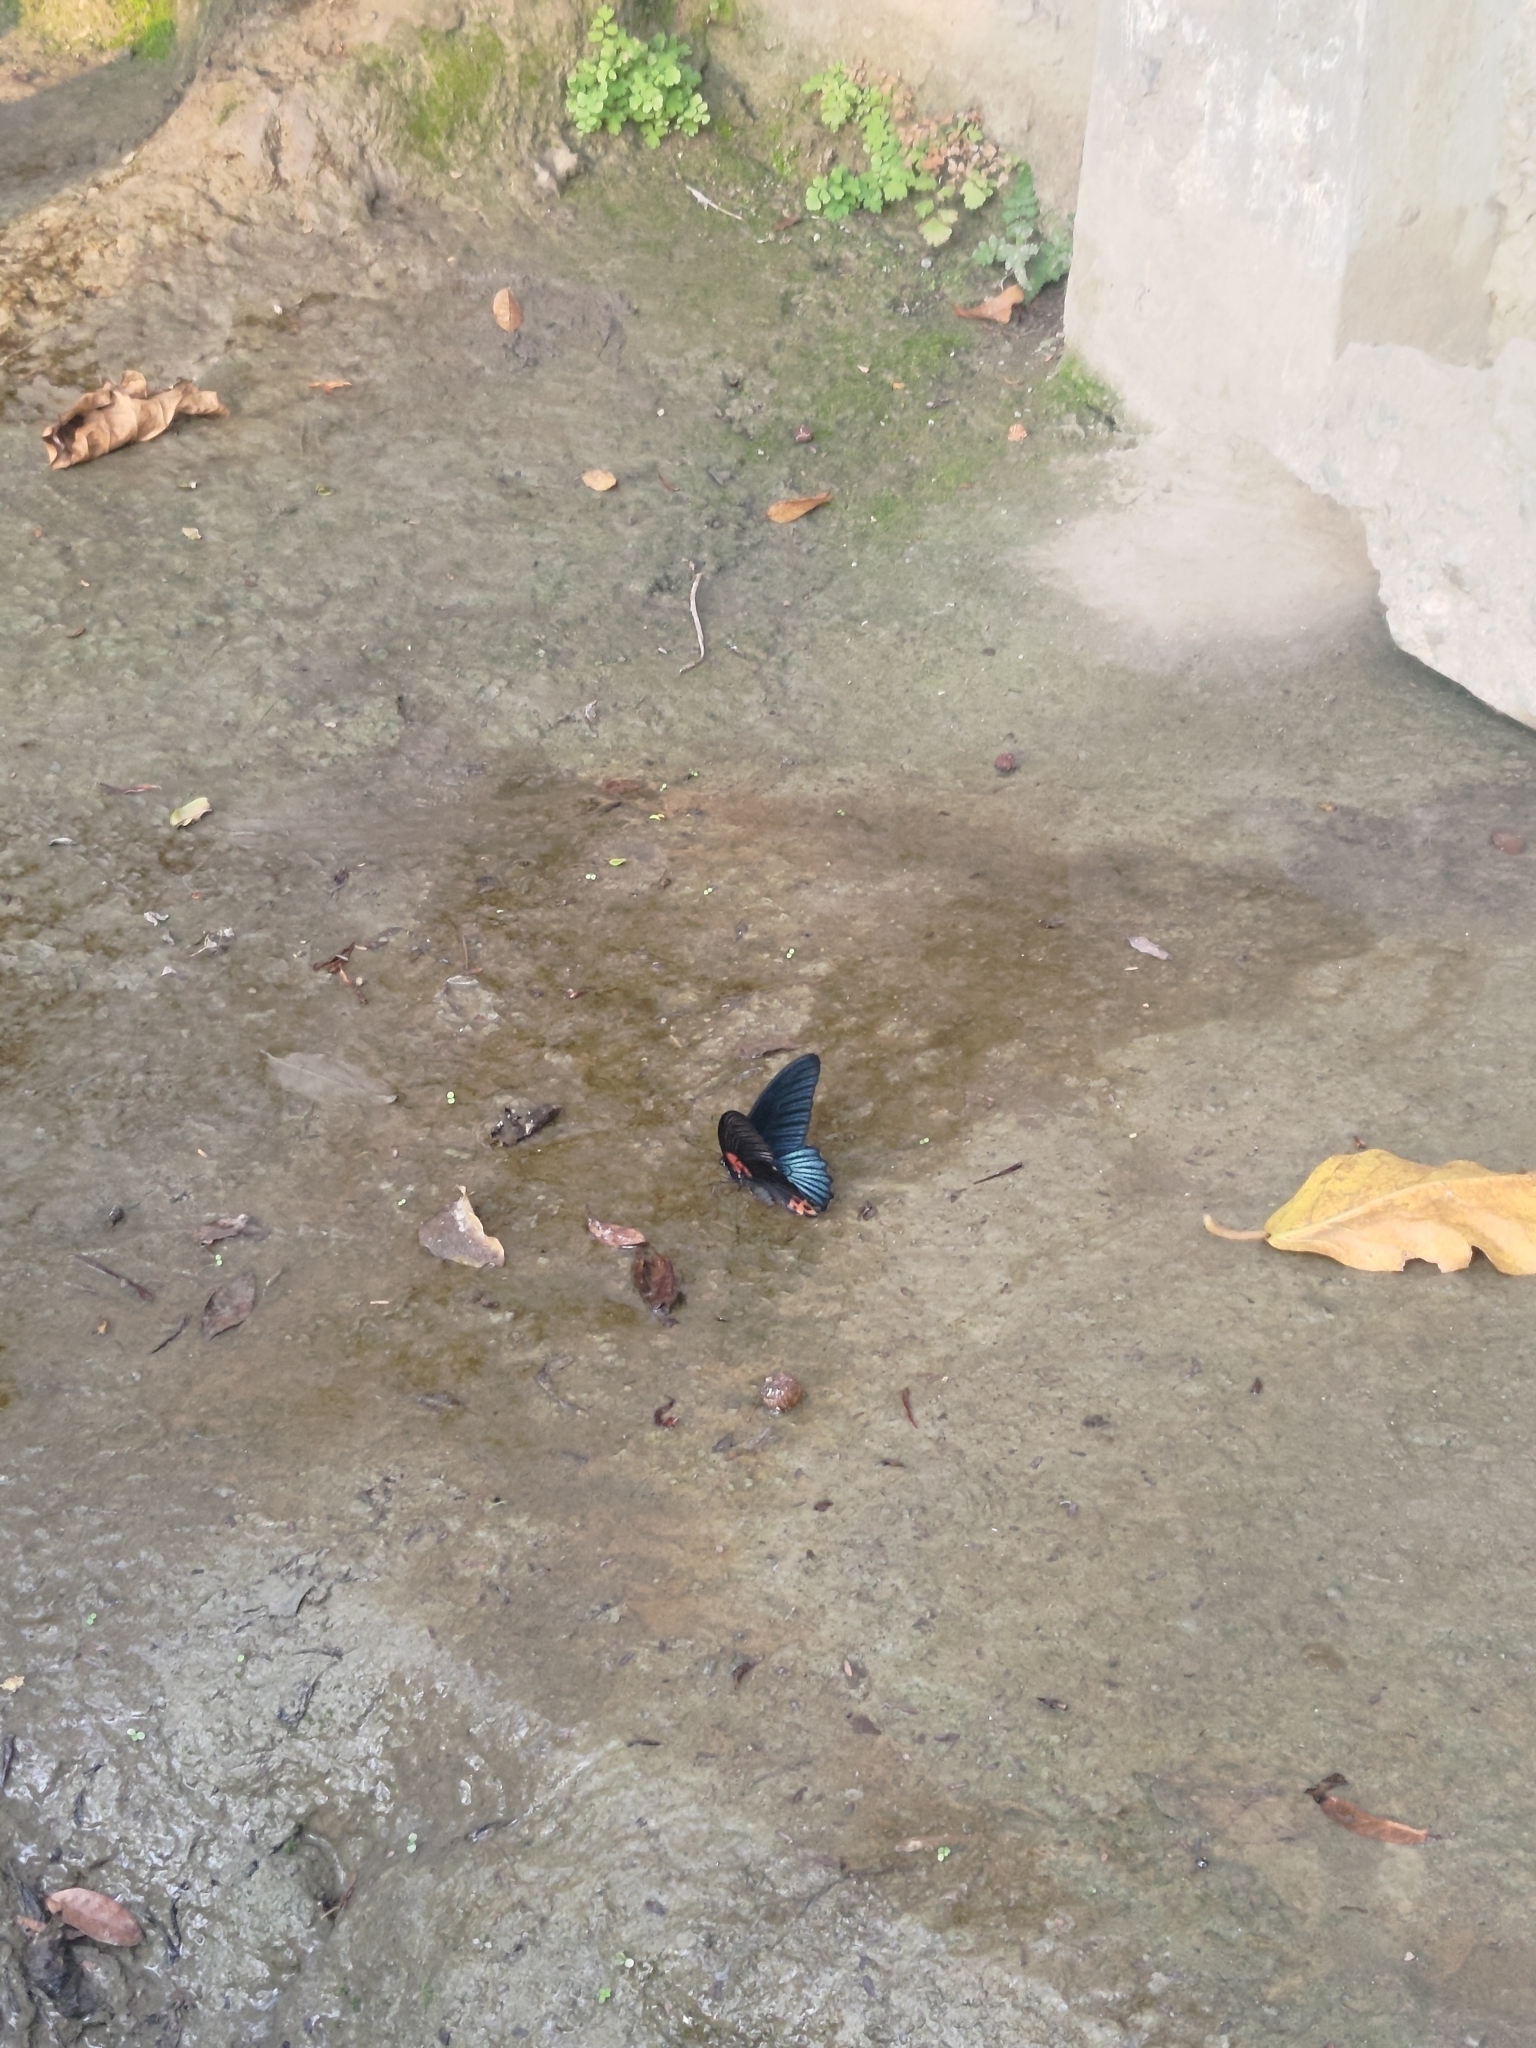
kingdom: Animalia
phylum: Arthropoda
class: Insecta
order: Lepidoptera
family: Papilionidae
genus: Papilio
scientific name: Papilio memnon
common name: Great mormon
